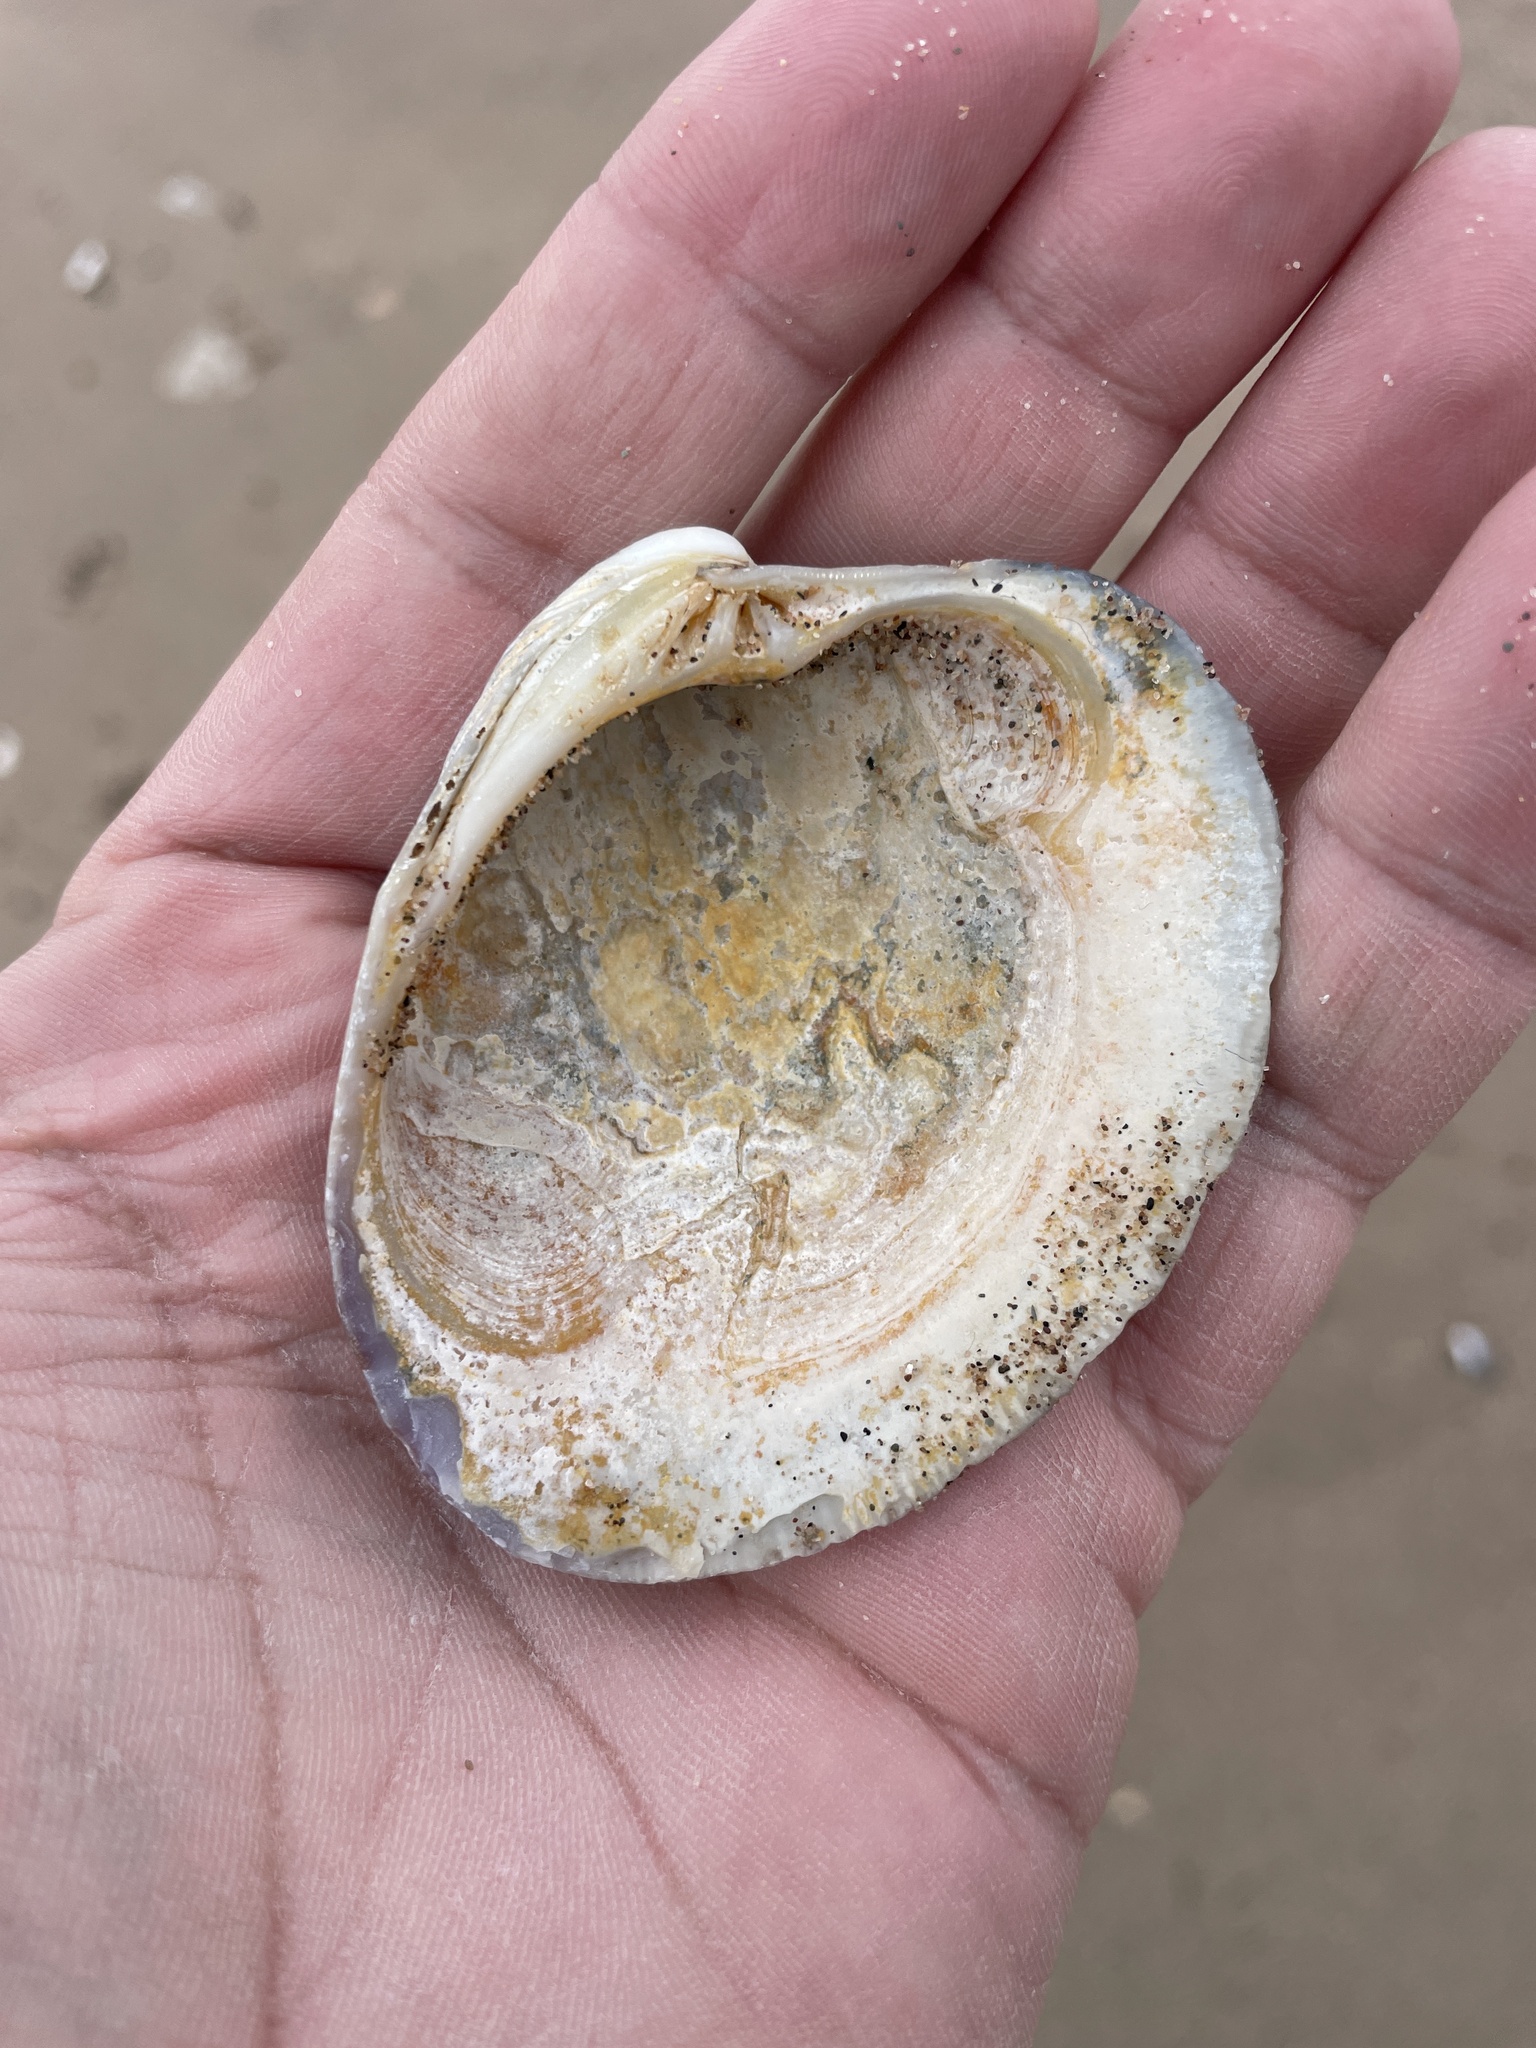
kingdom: Animalia
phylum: Mollusca
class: Bivalvia
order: Venerida
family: Veneridae
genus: Mercenaria
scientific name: Mercenaria mercenaria
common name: American hard-shelled clam
